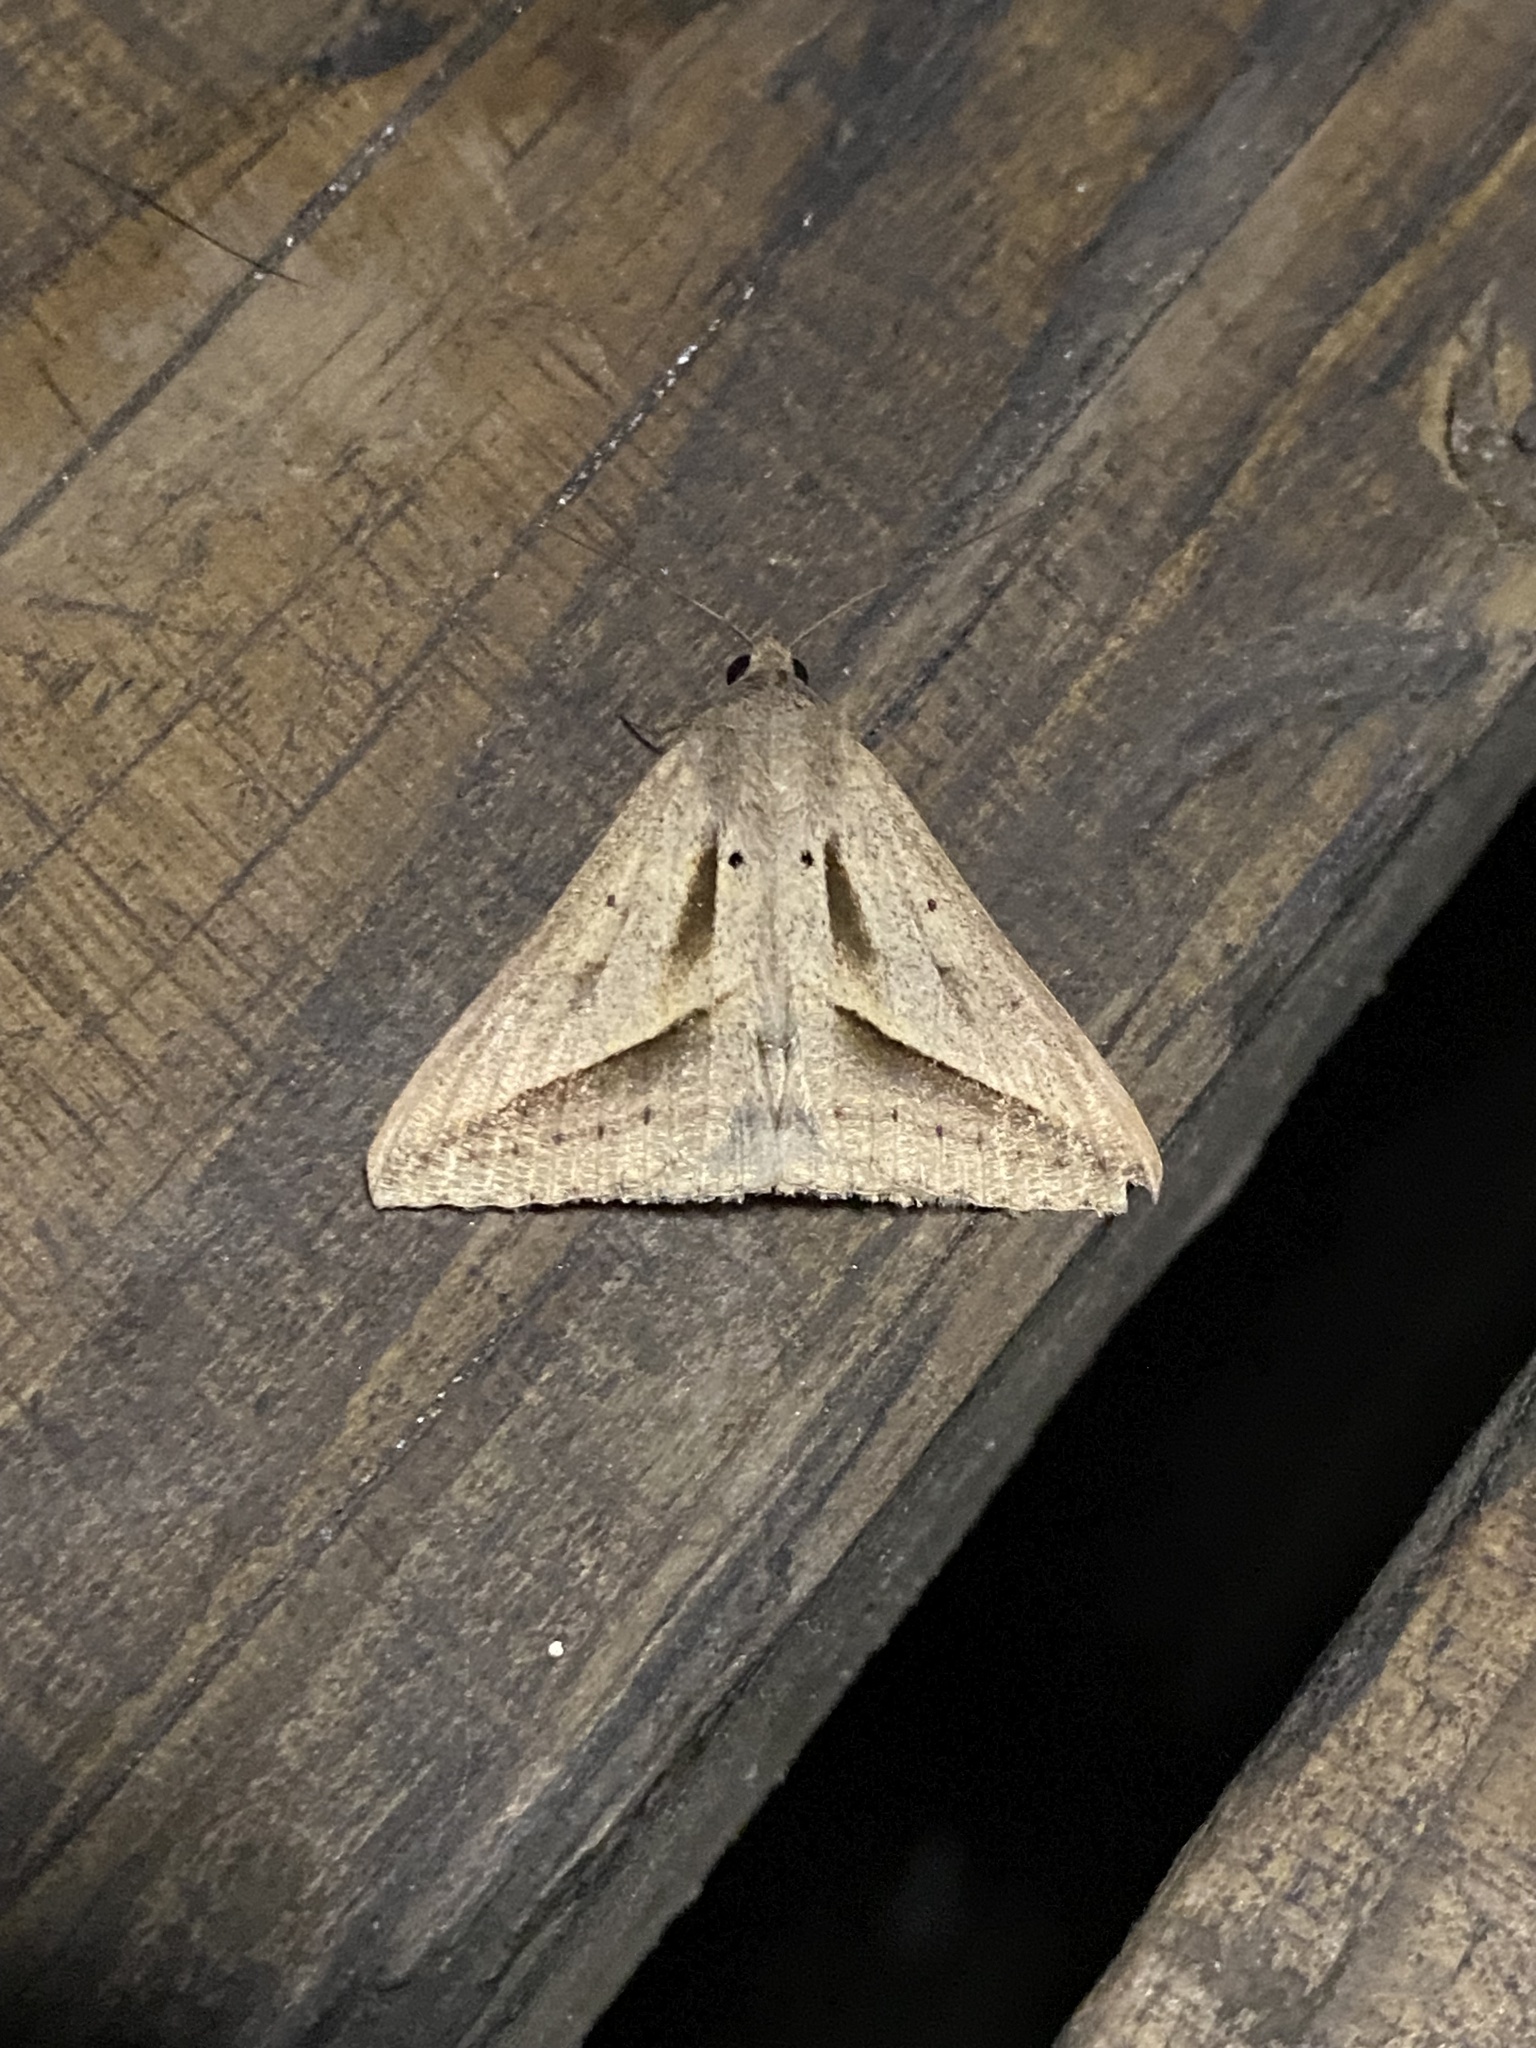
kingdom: Animalia
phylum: Arthropoda
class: Insecta
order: Lepidoptera
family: Erebidae
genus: Mocis
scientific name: Mocis proverai
